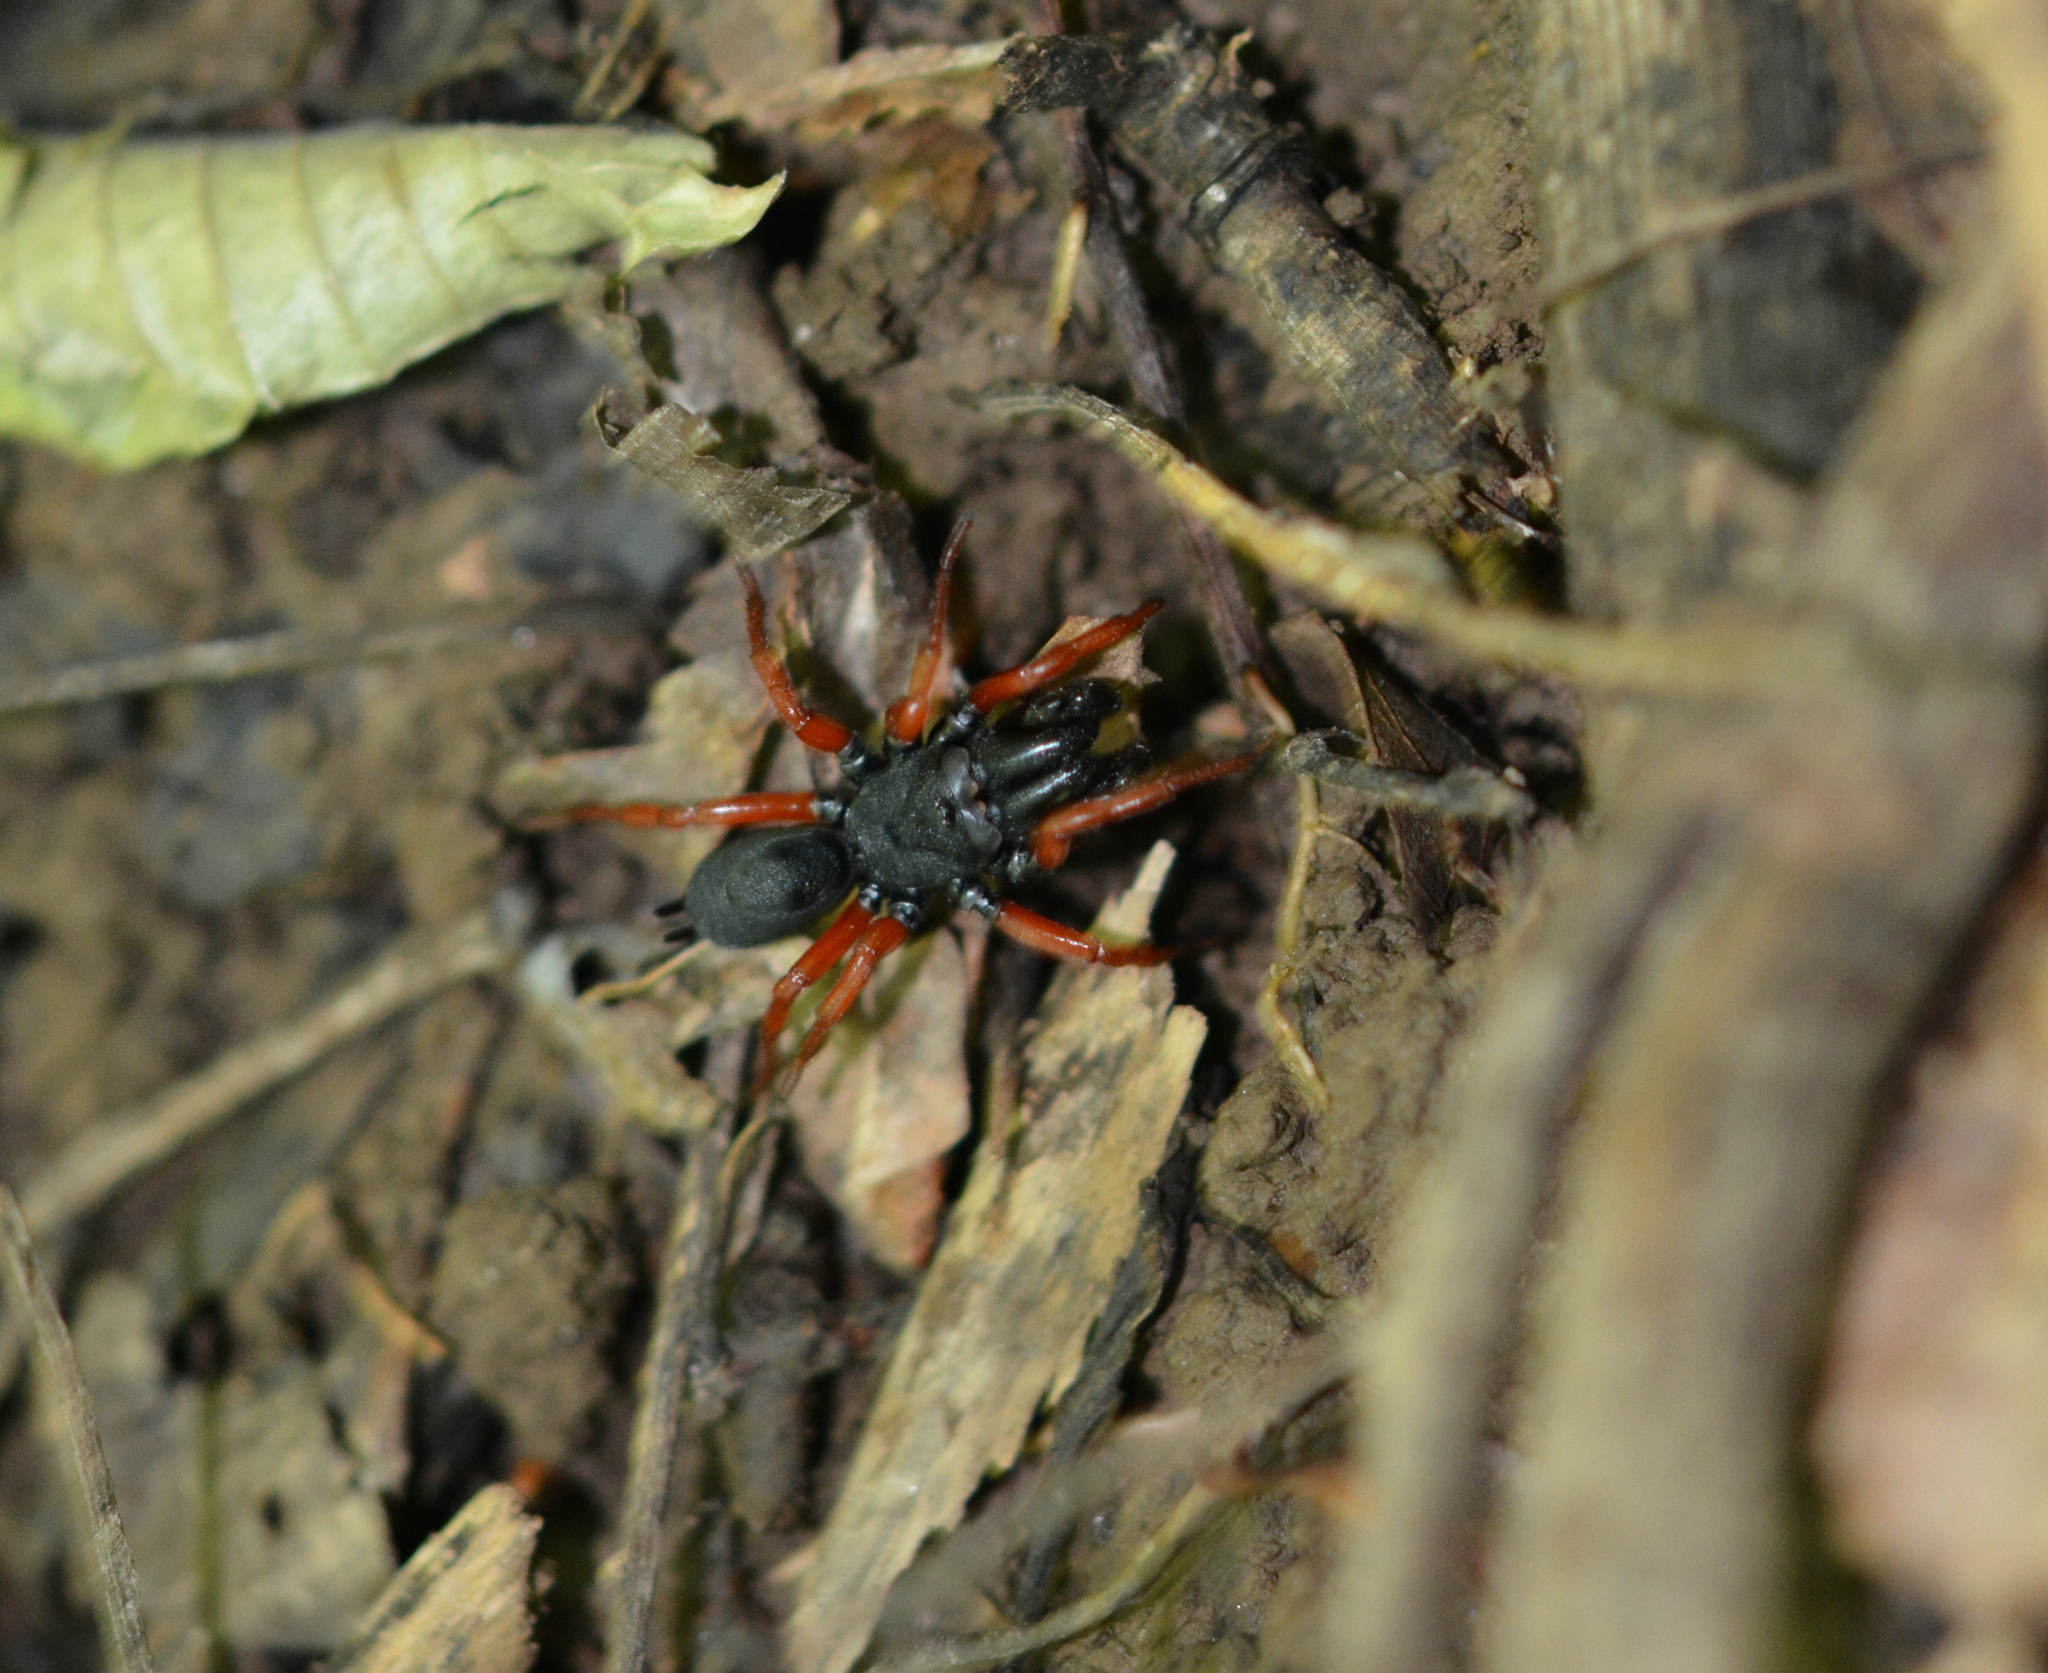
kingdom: Animalia
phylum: Arthropoda
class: Arachnida
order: Araneae
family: Atypidae
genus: Sphodros
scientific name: Sphodros rufipes
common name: Red-legged purseweb spider
